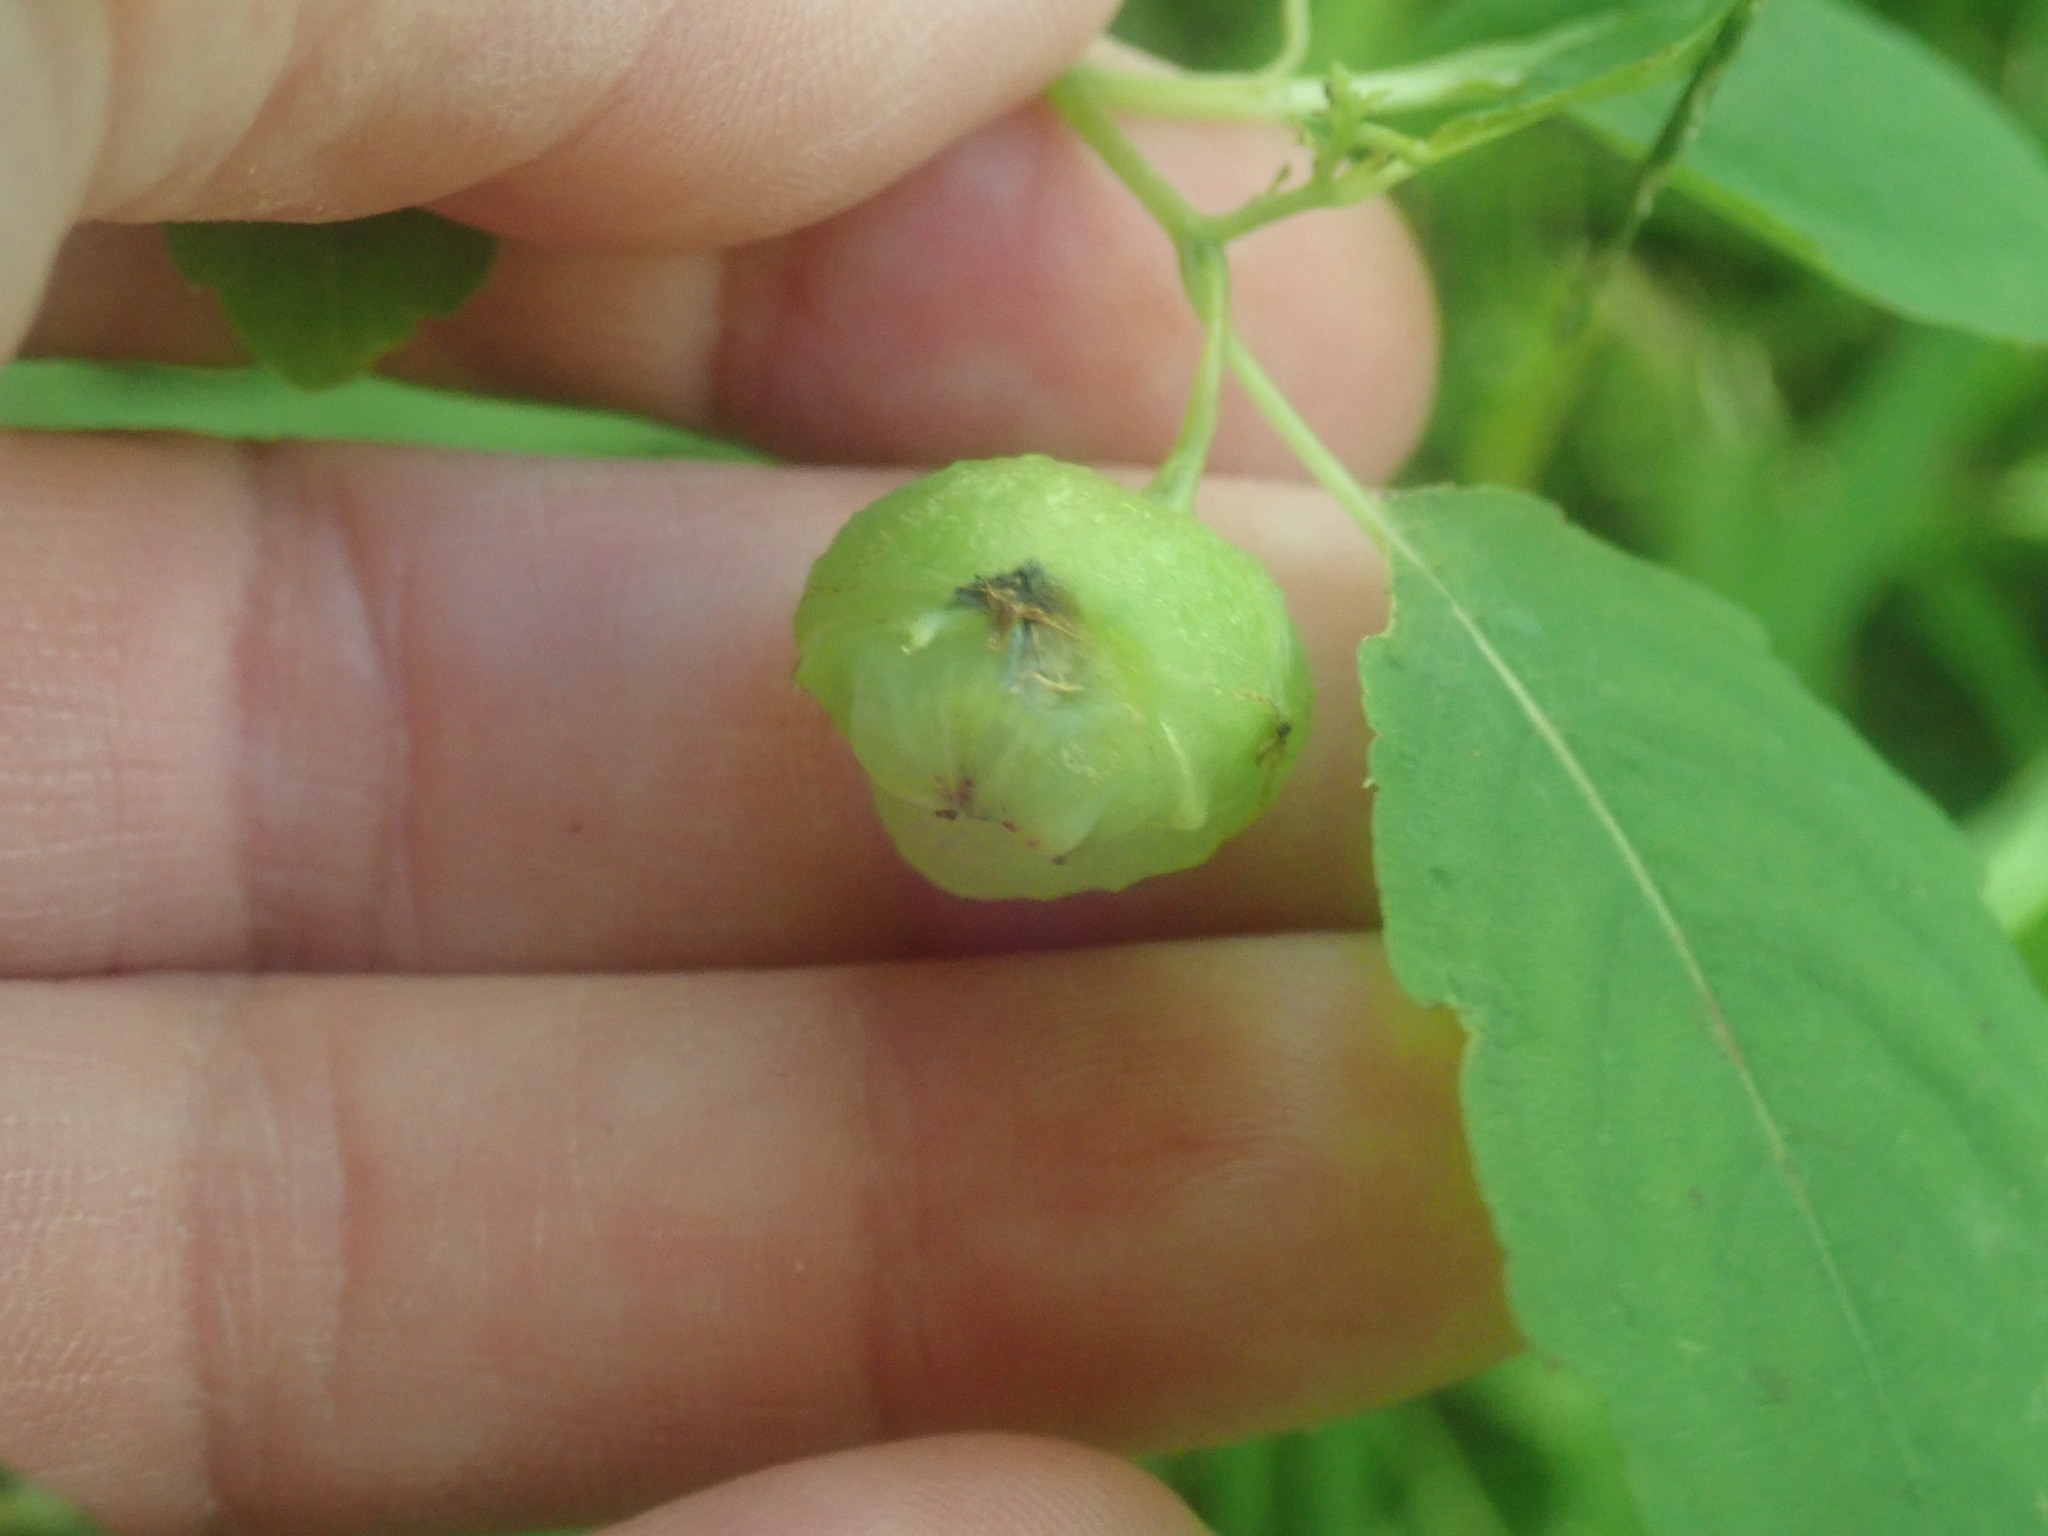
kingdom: Animalia
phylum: Arthropoda
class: Insecta
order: Diptera
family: Cecidomyiidae
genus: Schizomyia
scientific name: Schizomyia impatientis
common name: Jewelweed gall midge
